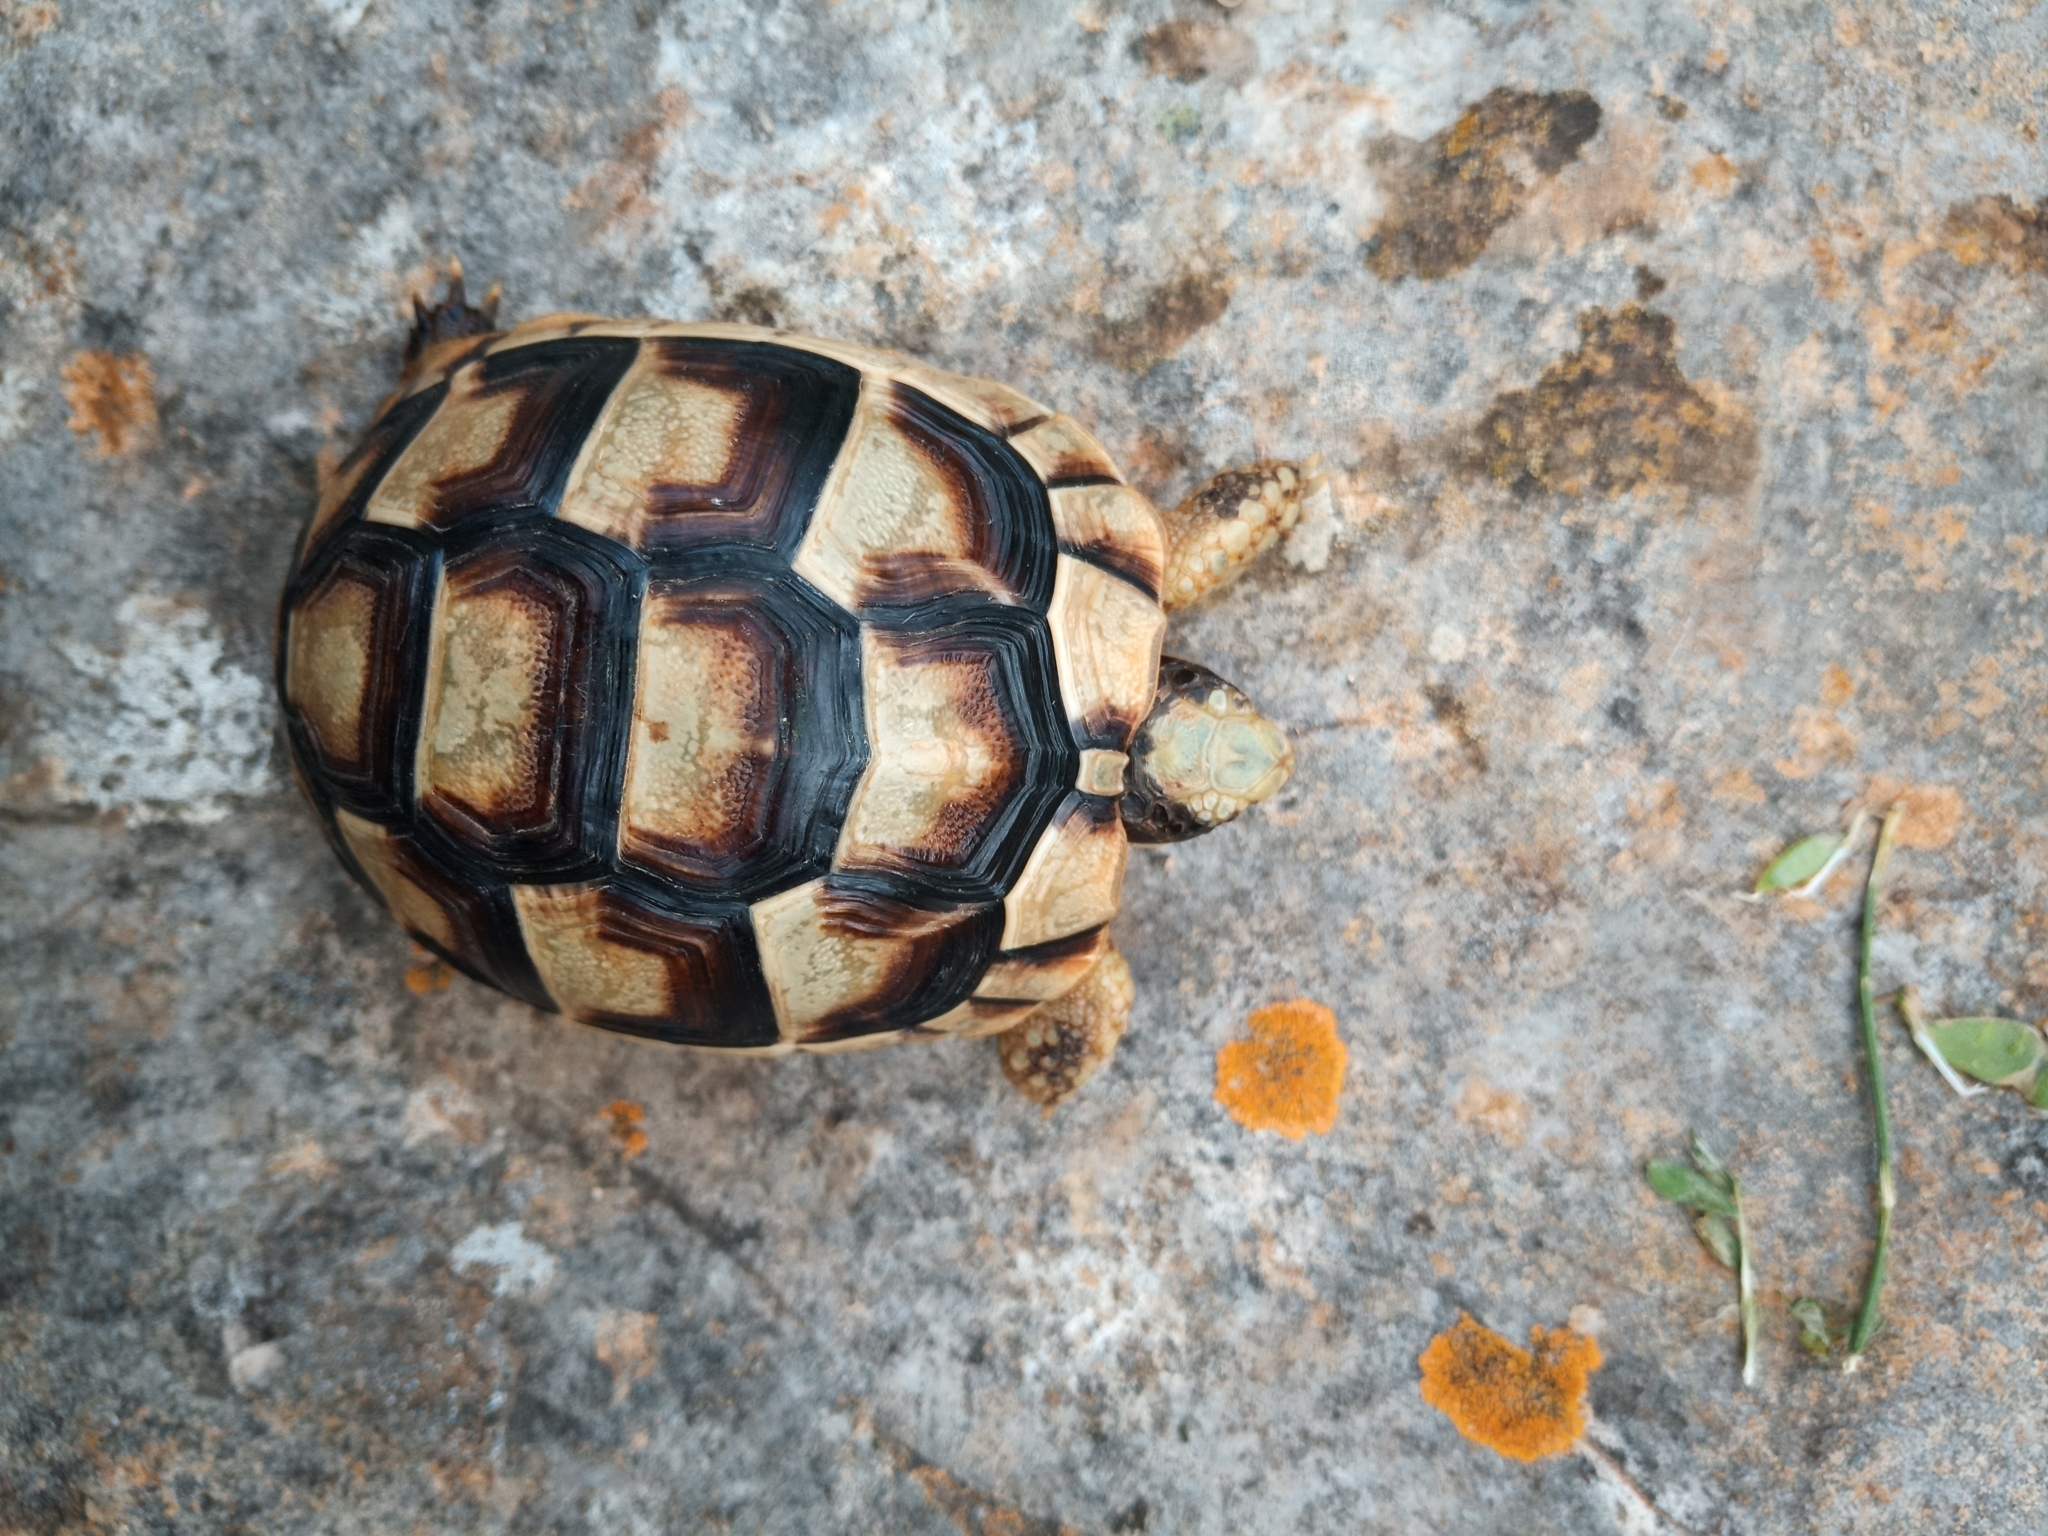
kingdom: Animalia
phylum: Chordata
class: Testudines
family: Testudinidae
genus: Testudo
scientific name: Testudo marginata
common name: Marginated tortoise
